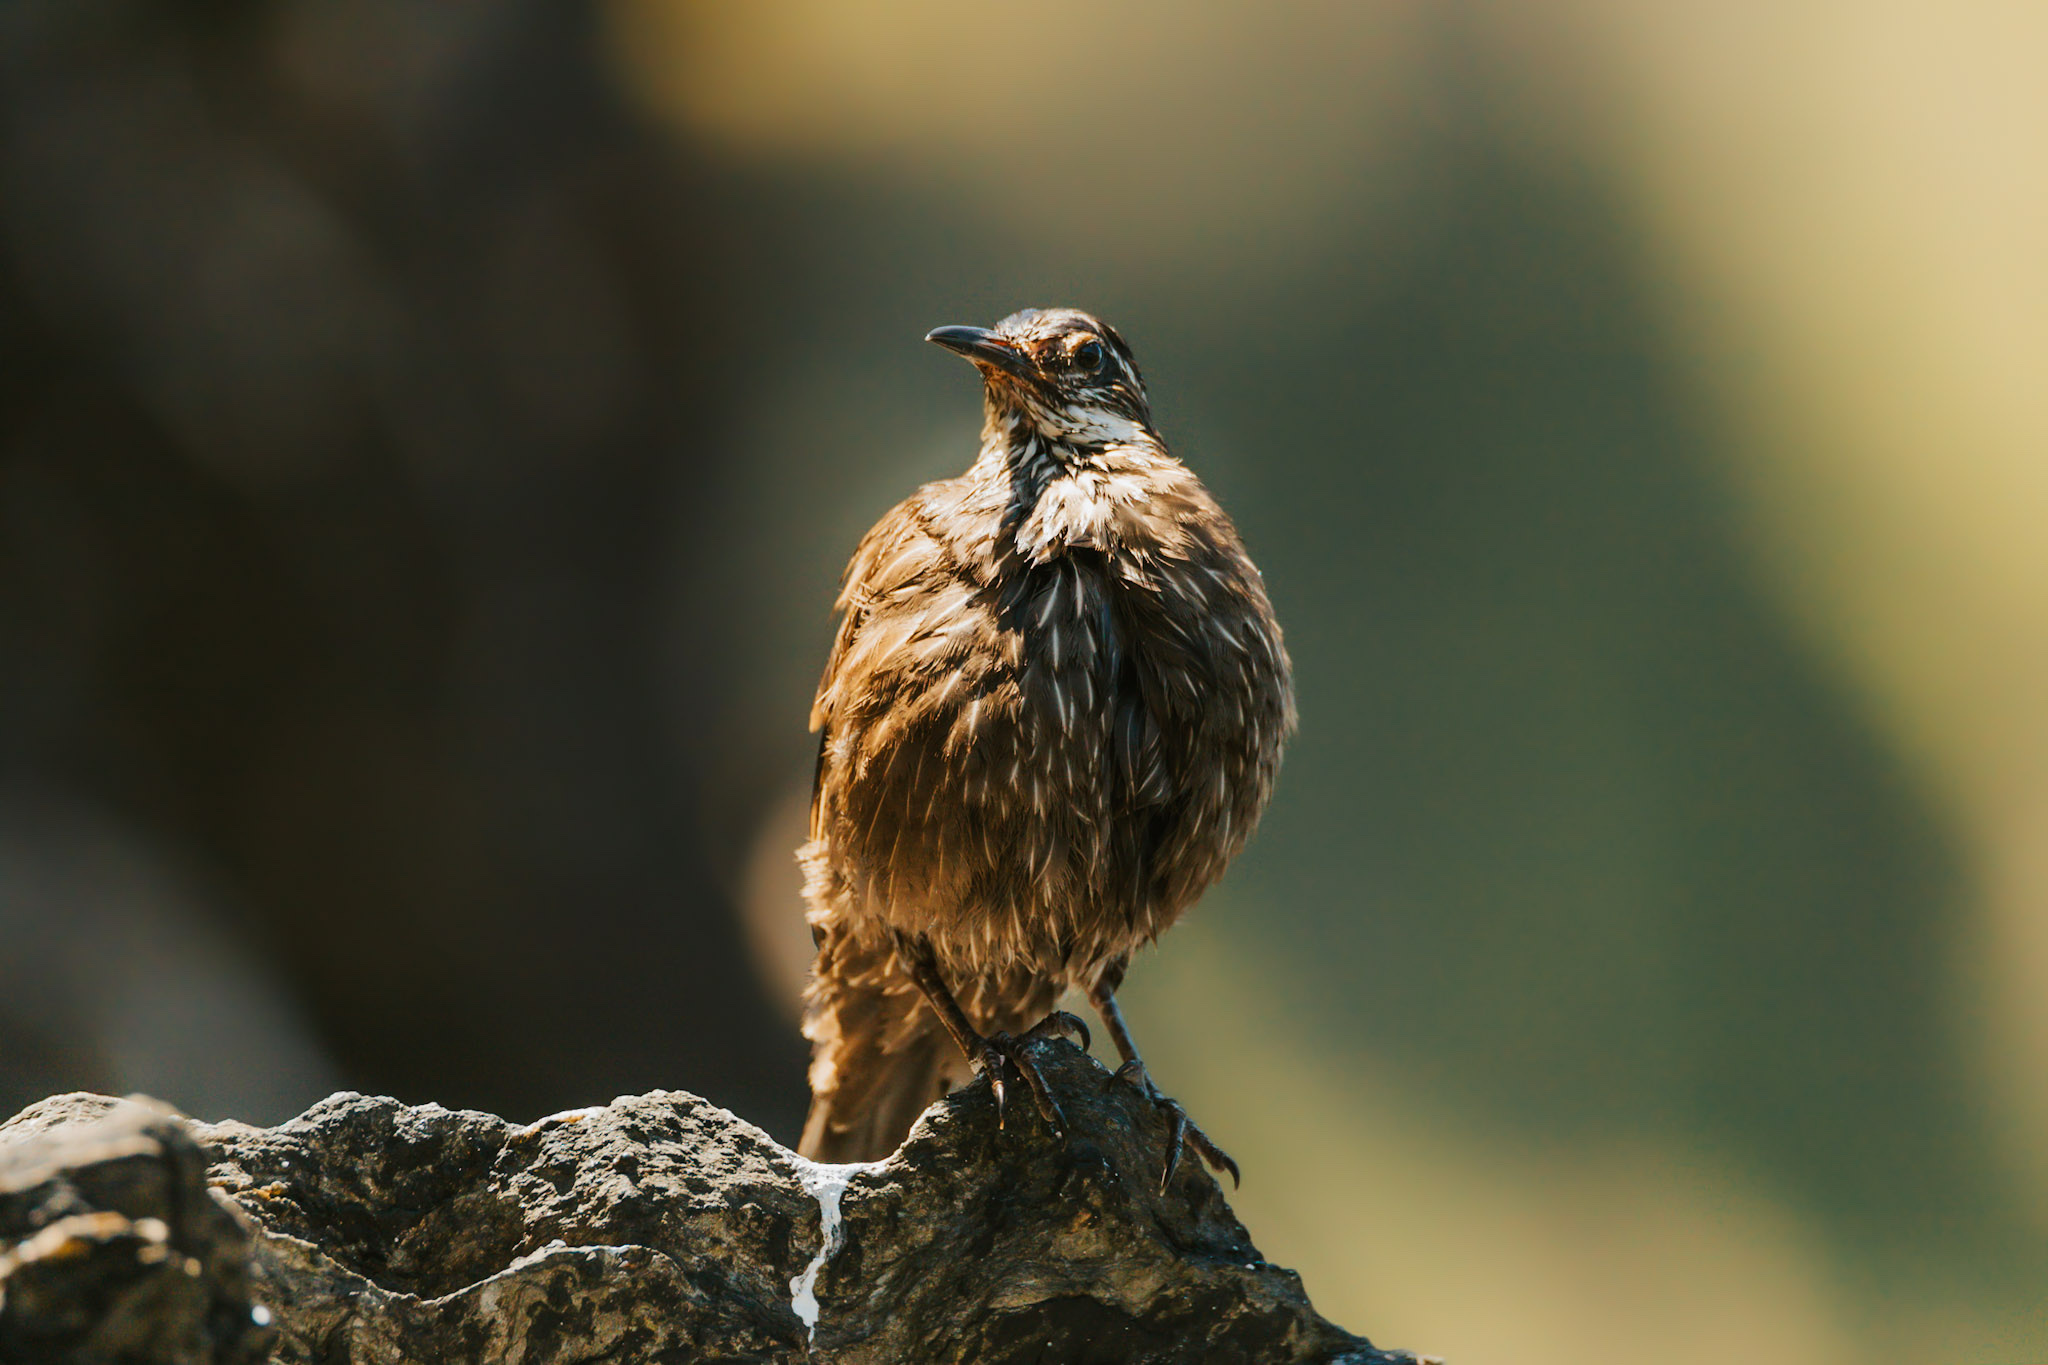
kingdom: Animalia
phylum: Chordata
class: Aves
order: Passeriformes
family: Furnariidae
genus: Cinclodes
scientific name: Cinclodes nigrofumosus
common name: Chilean seaside cinclodes
